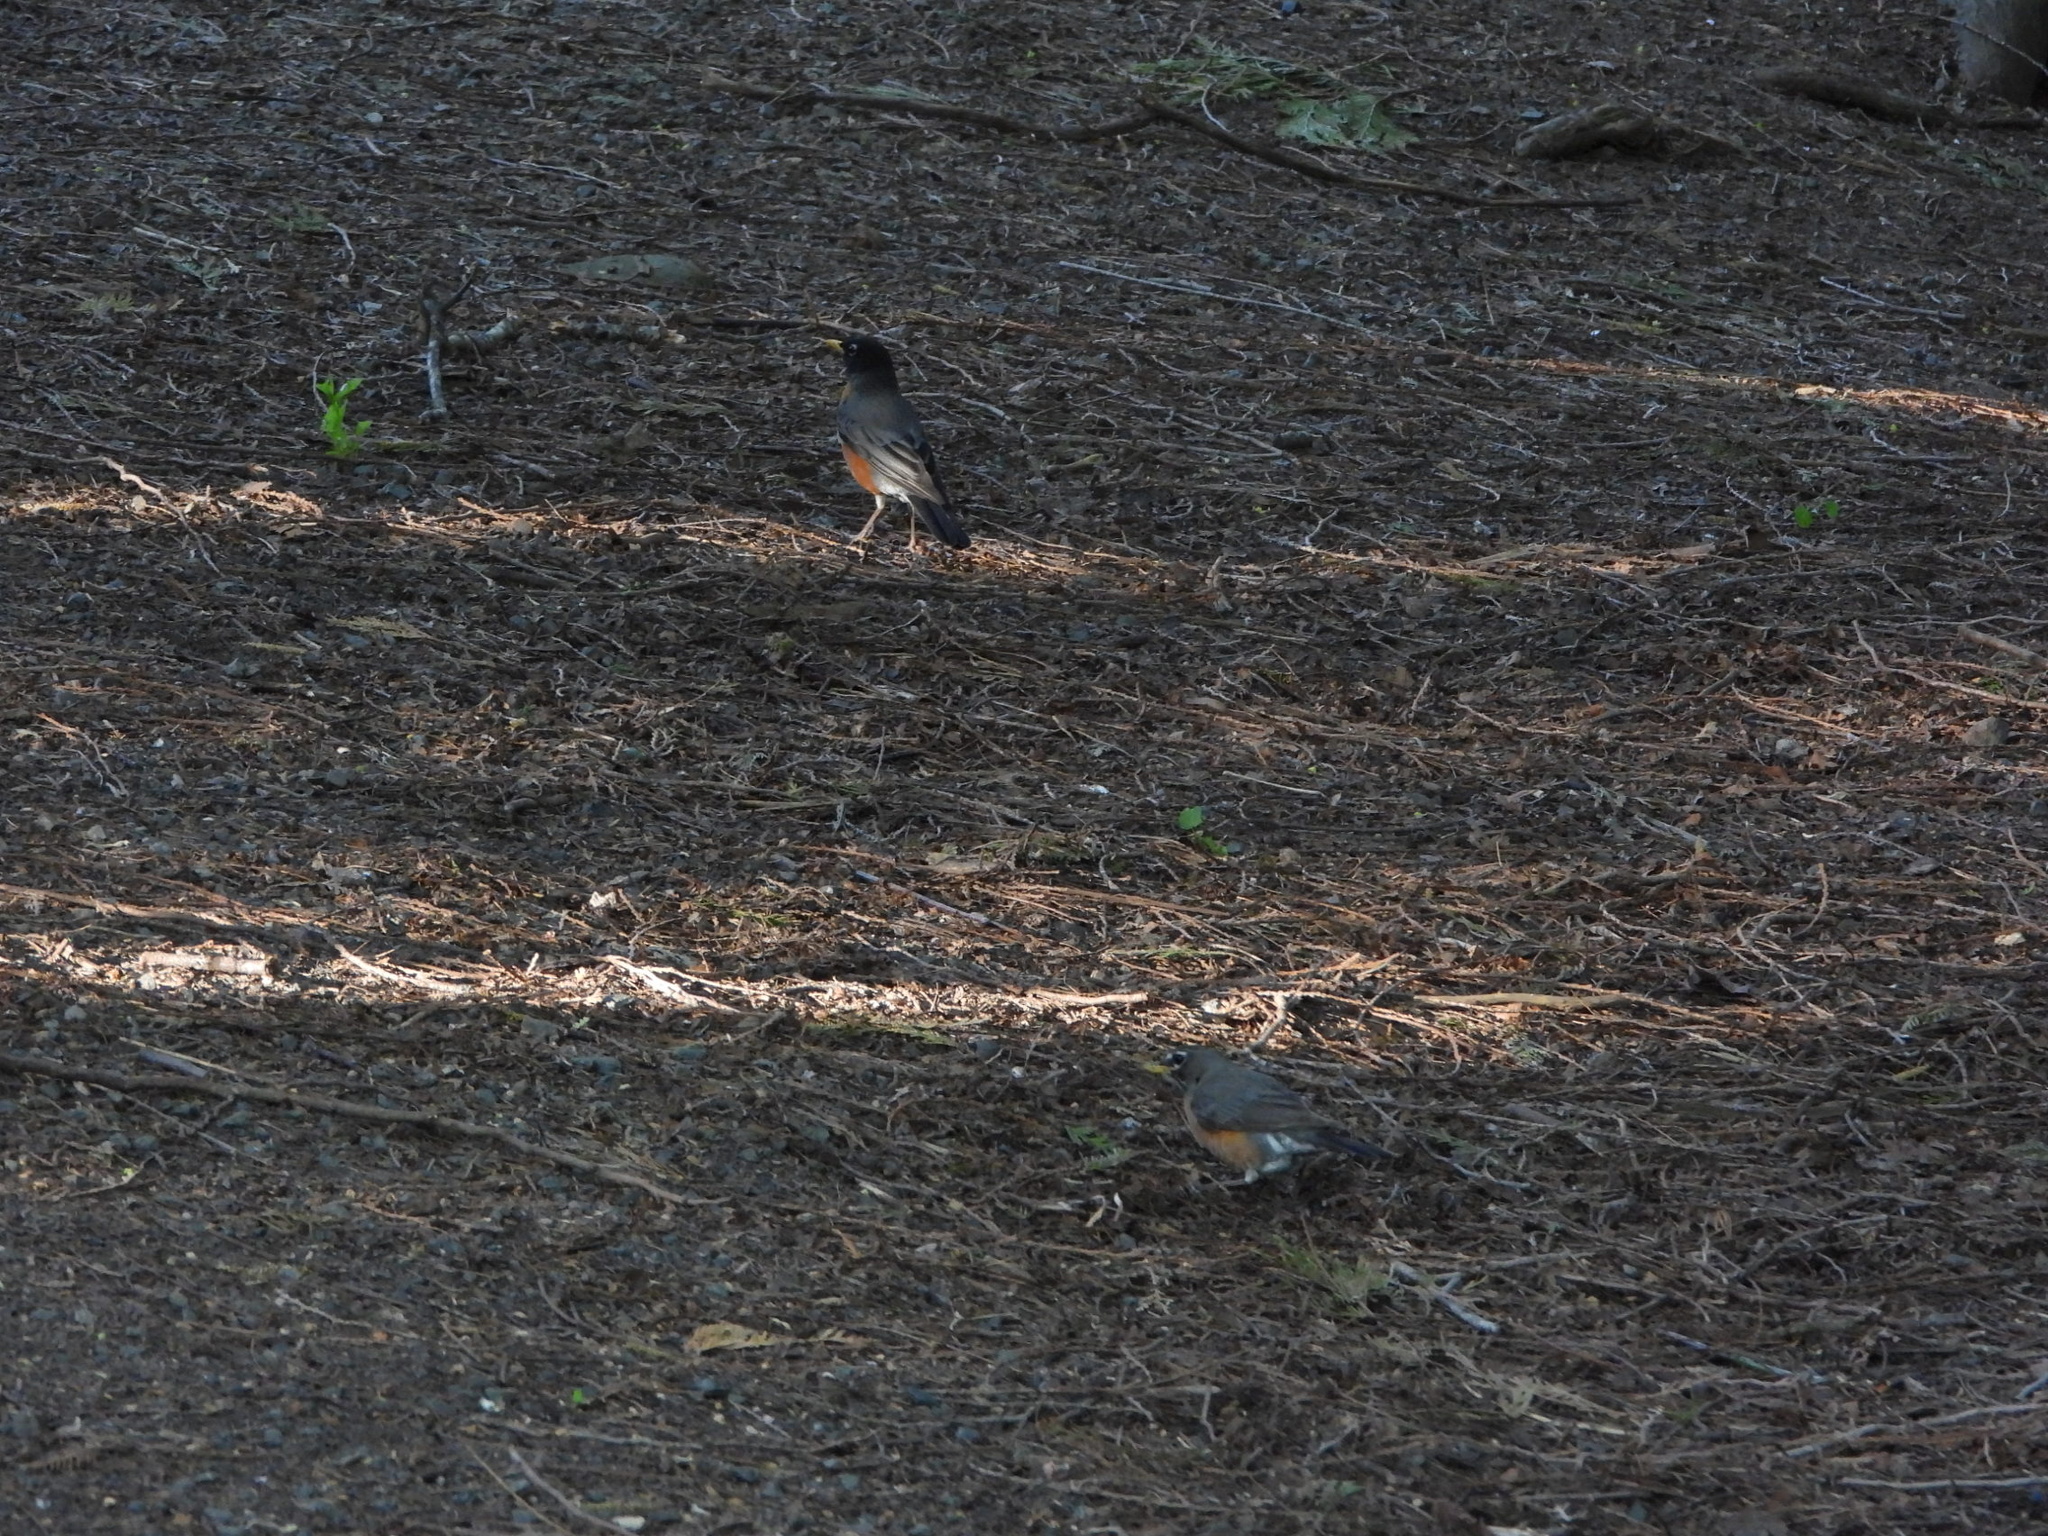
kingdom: Animalia
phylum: Chordata
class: Aves
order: Passeriformes
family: Turdidae
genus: Turdus
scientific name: Turdus migratorius
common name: American robin
